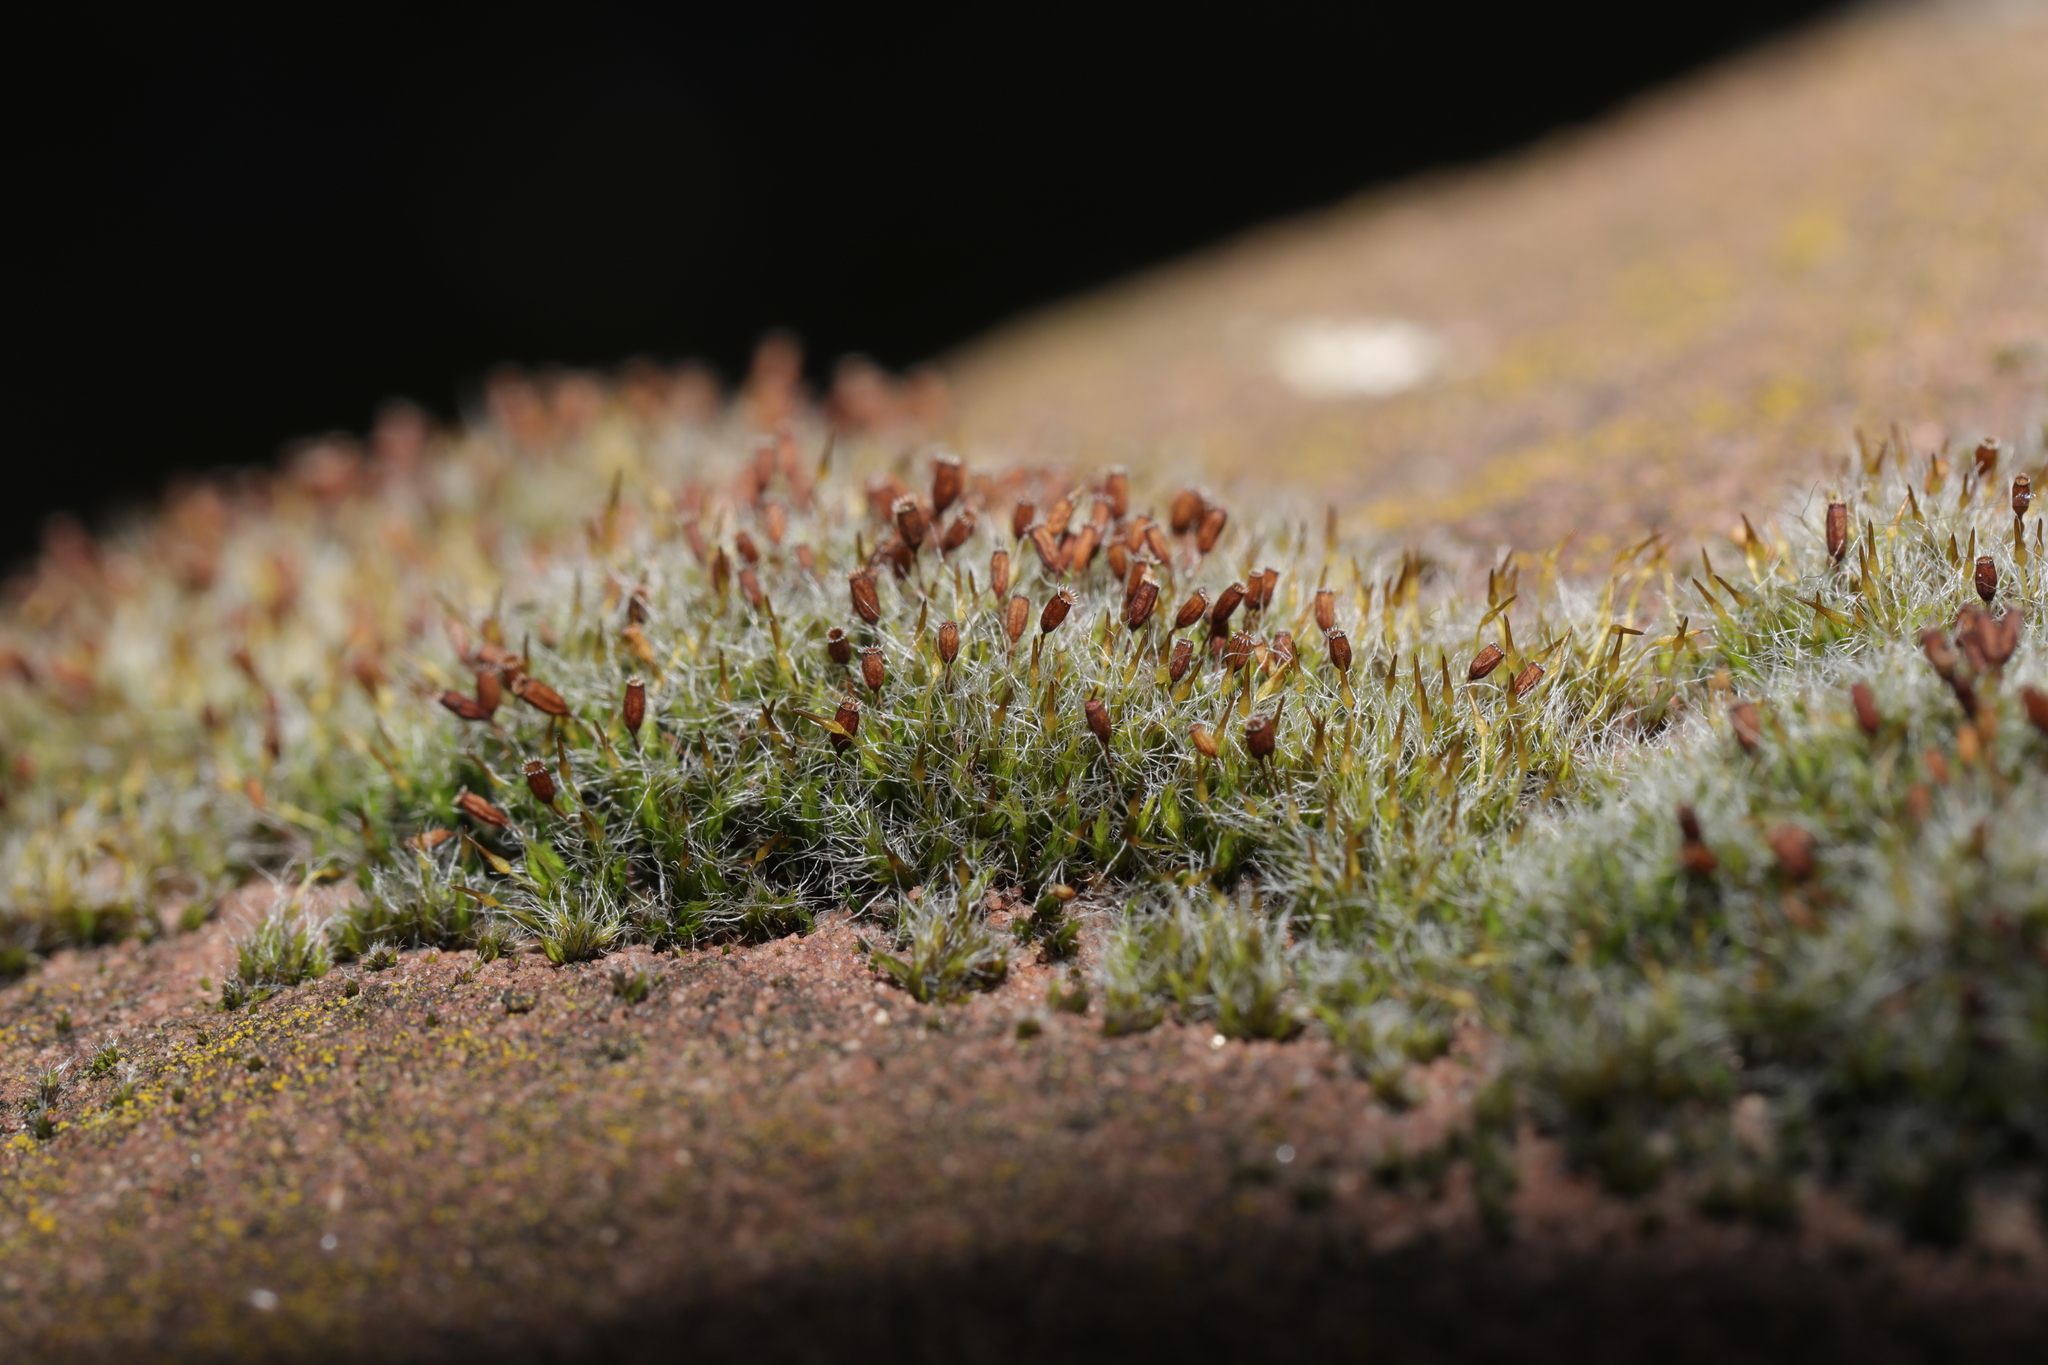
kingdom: Plantae
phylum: Bryophyta
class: Bryopsida
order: Grimmiales
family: Grimmiaceae
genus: Grimmia
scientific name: Grimmia pulvinata
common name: Grey-cushioned grimmia
